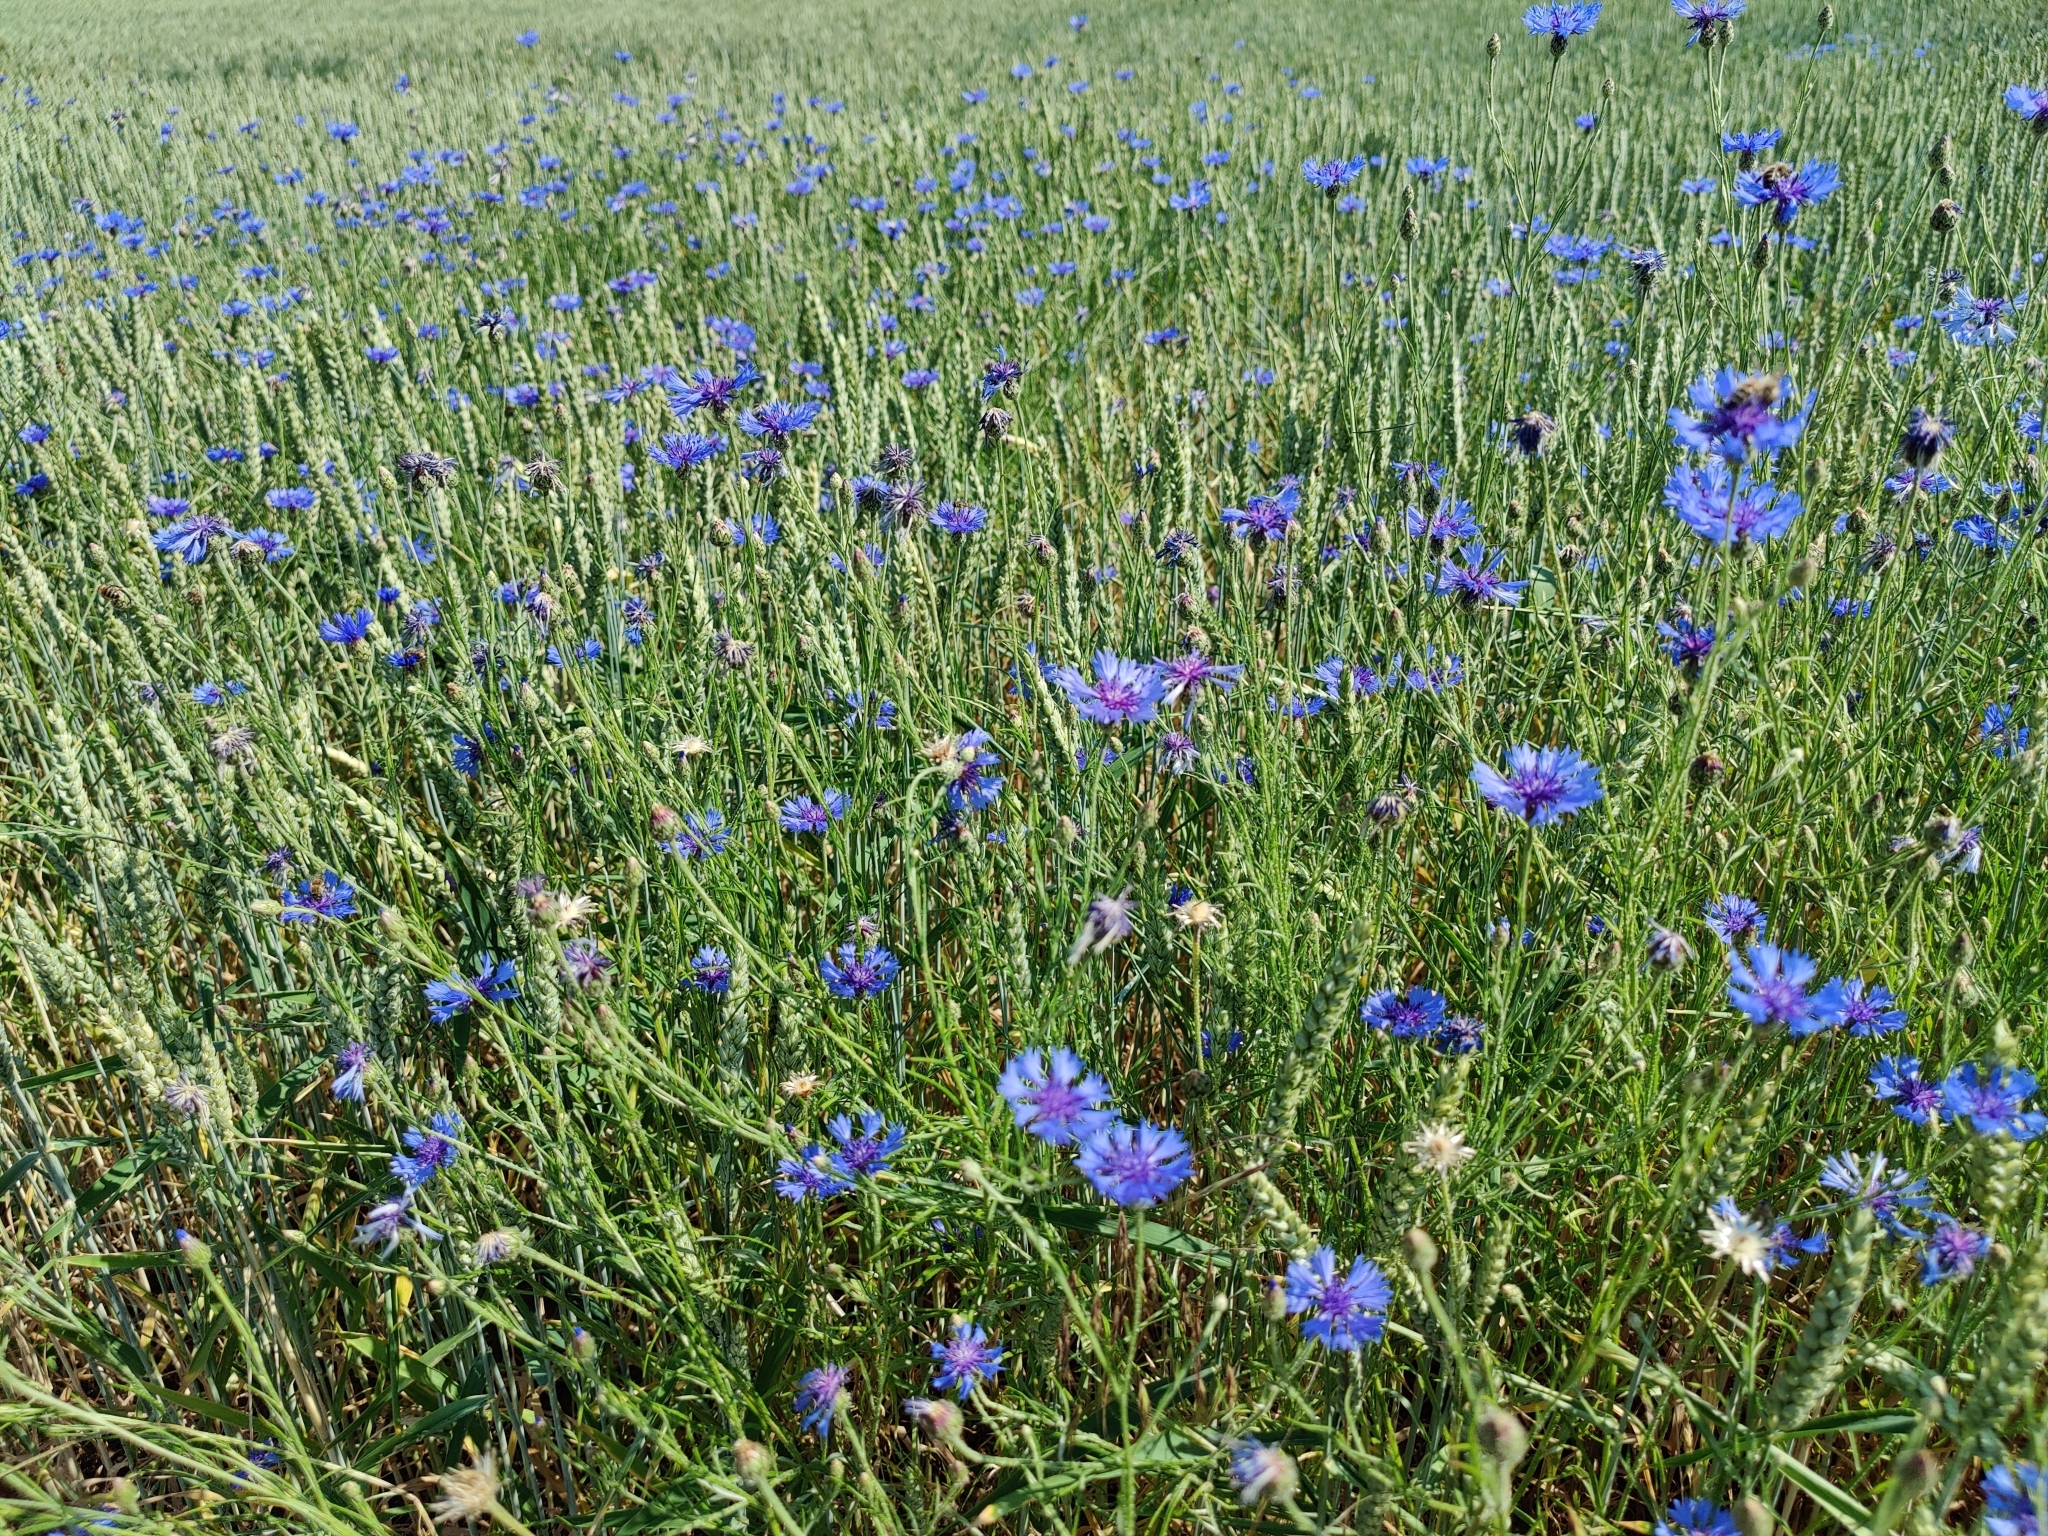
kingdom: Plantae
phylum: Tracheophyta
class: Magnoliopsida
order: Asterales
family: Asteraceae
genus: Centaurea
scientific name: Centaurea cyanus
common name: Cornflower
